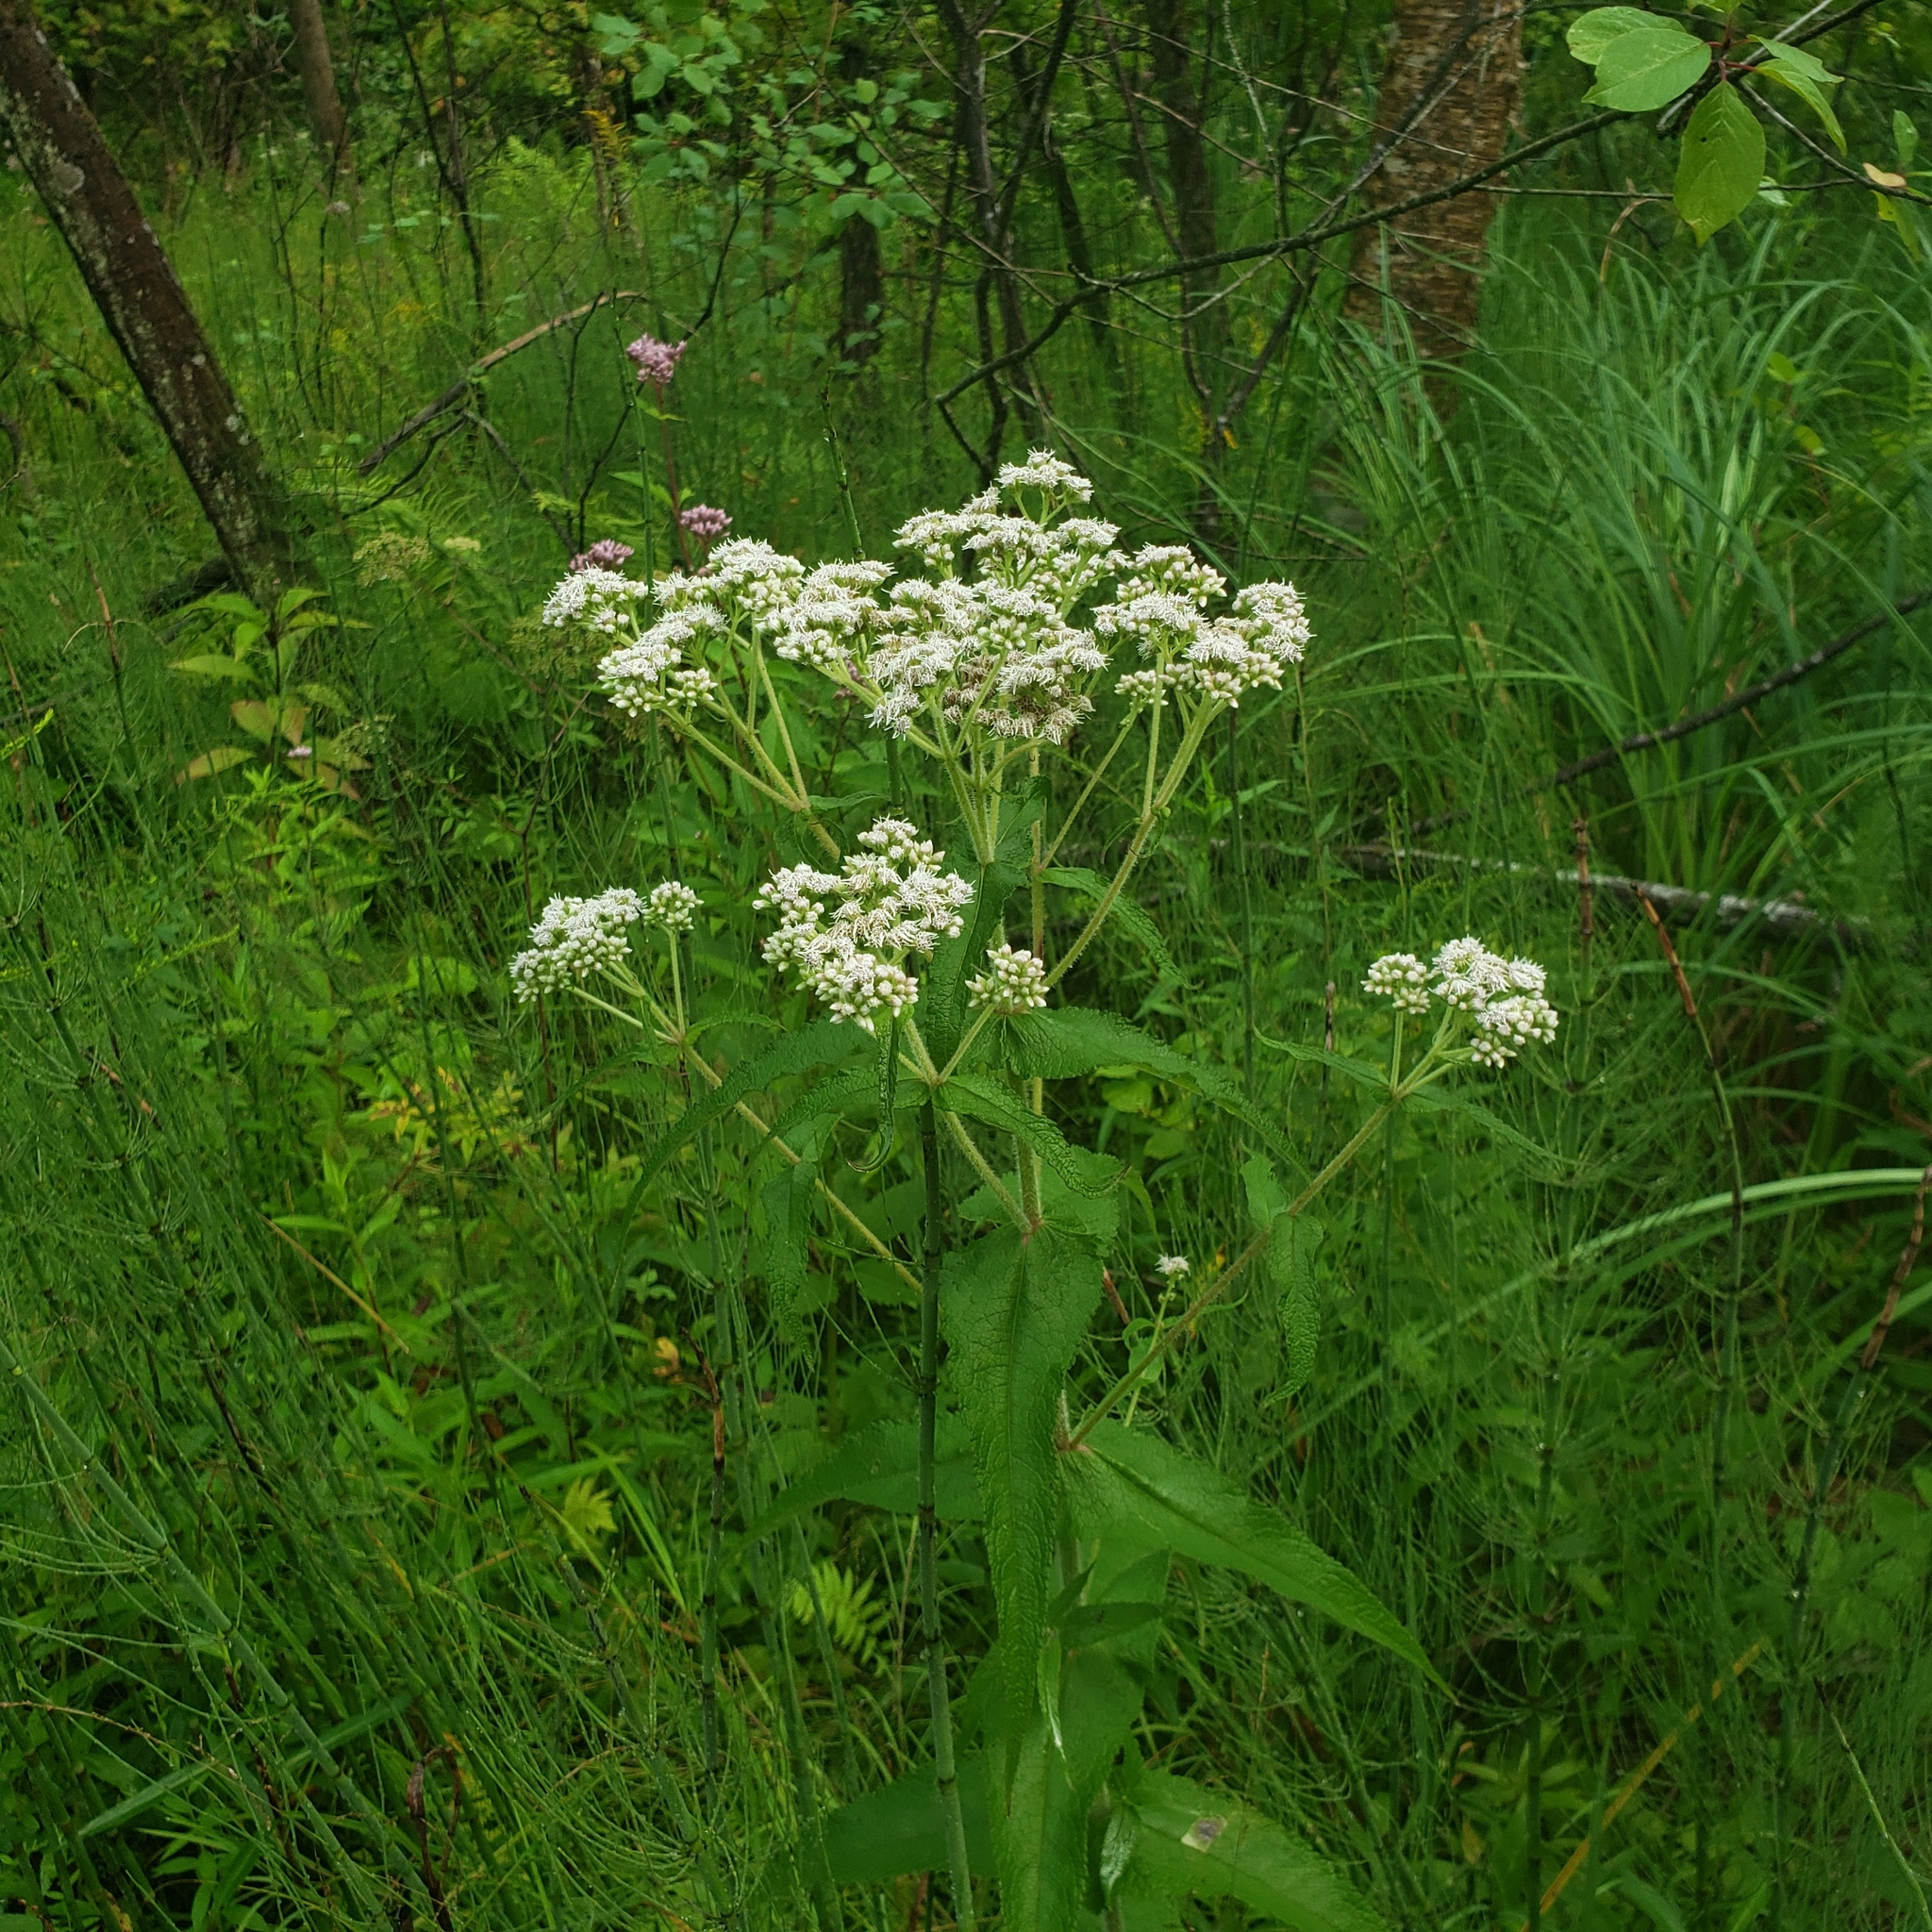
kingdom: Plantae
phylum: Tracheophyta
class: Magnoliopsida
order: Asterales
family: Asteraceae
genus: Eupatorium
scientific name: Eupatorium perfoliatum
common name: Boneset
